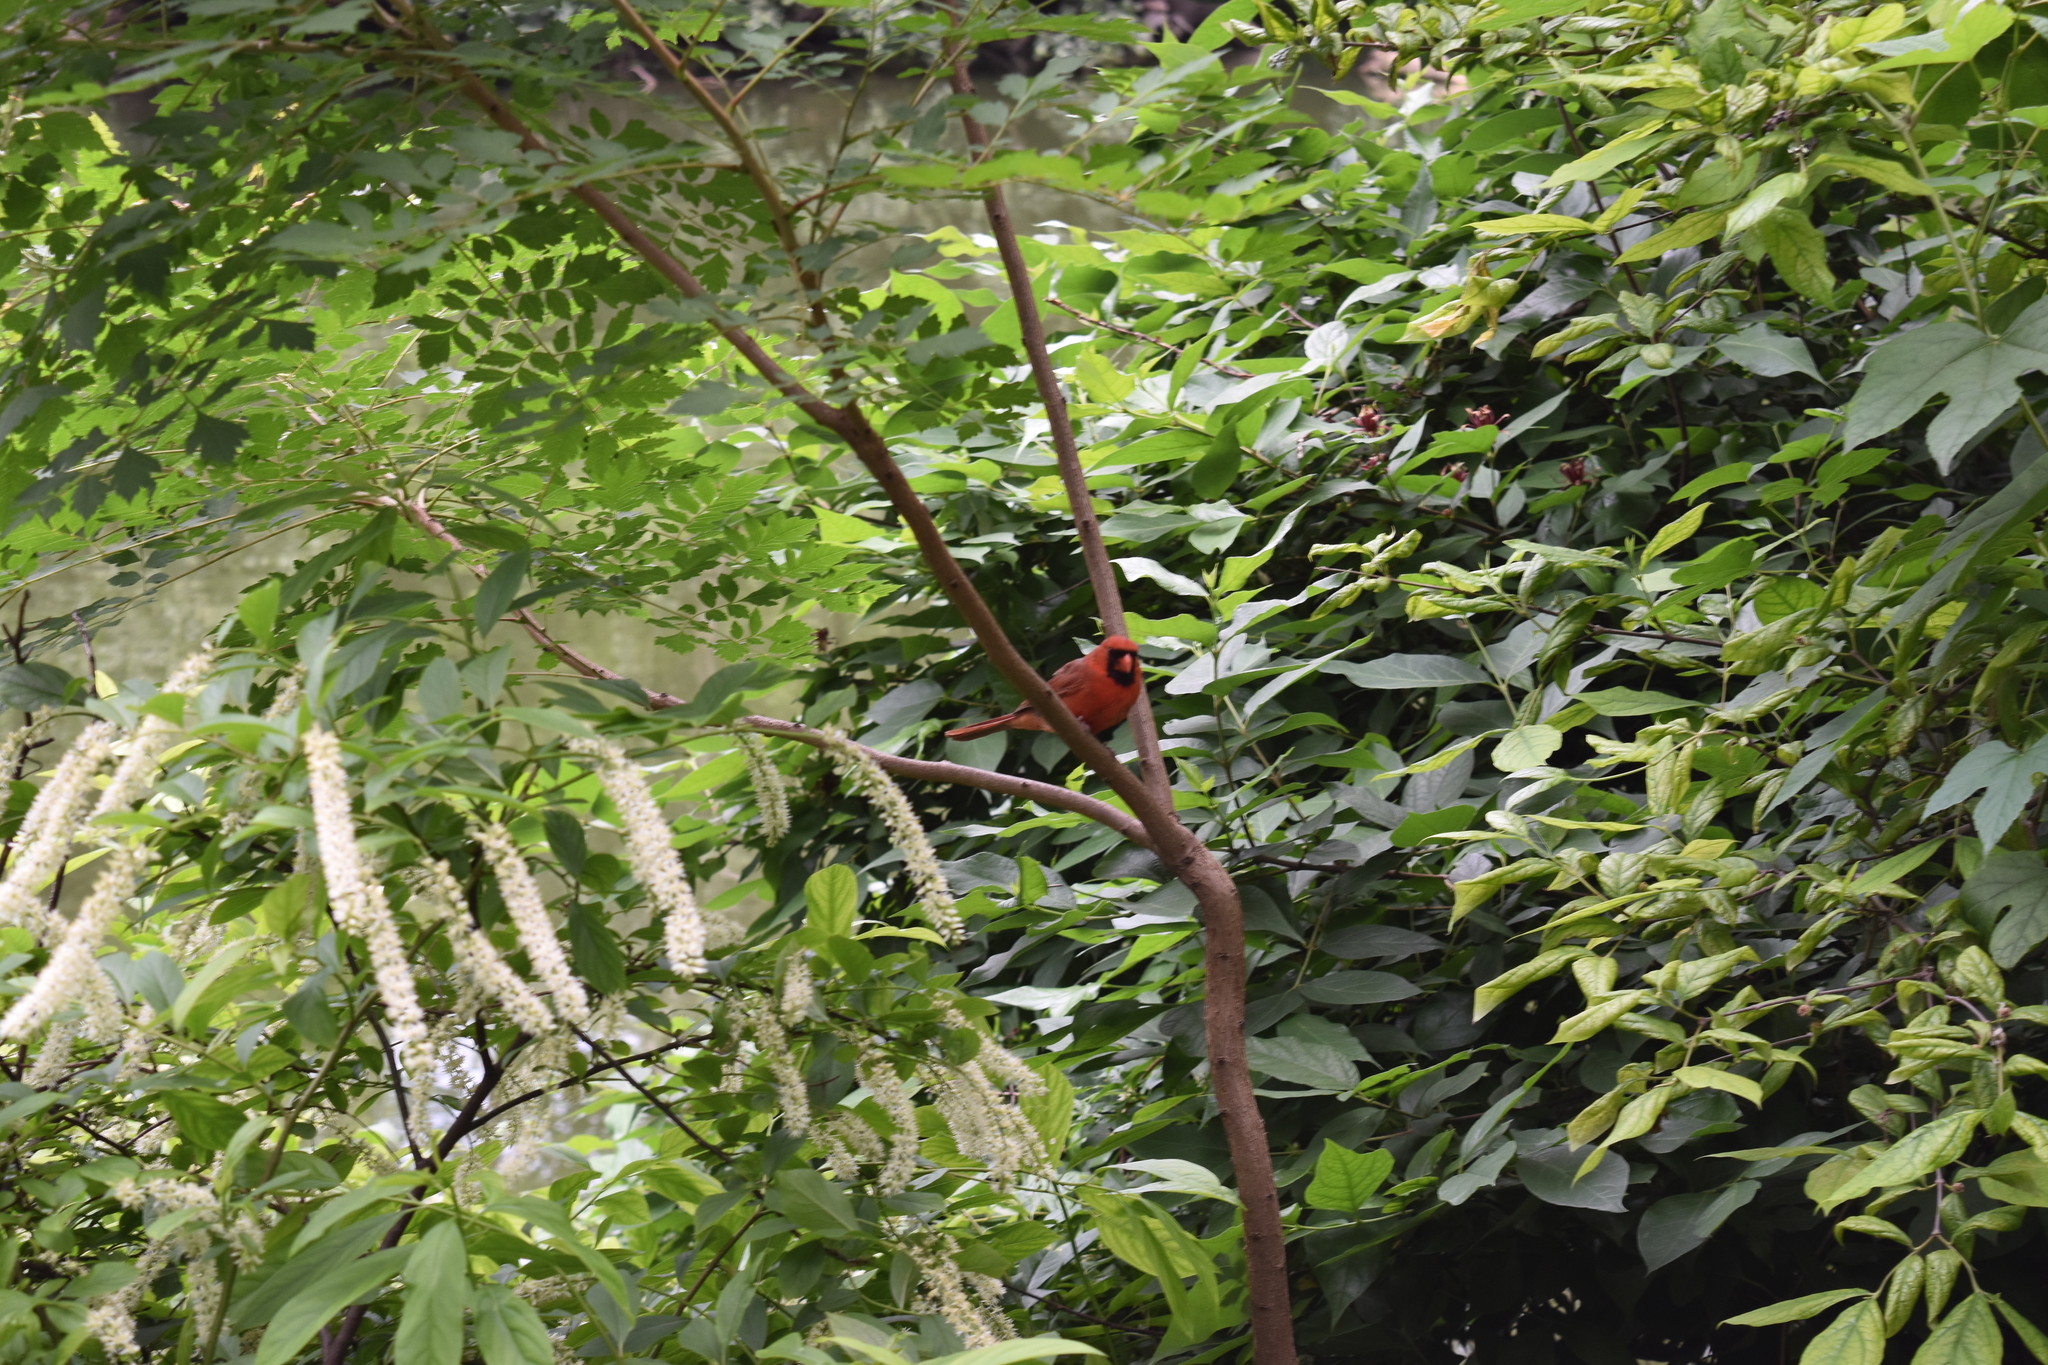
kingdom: Animalia
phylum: Chordata
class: Aves
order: Passeriformes
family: Cardinalidae
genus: Cardinalis
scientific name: Cardinalis cardinalis
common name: Northern cardinal
